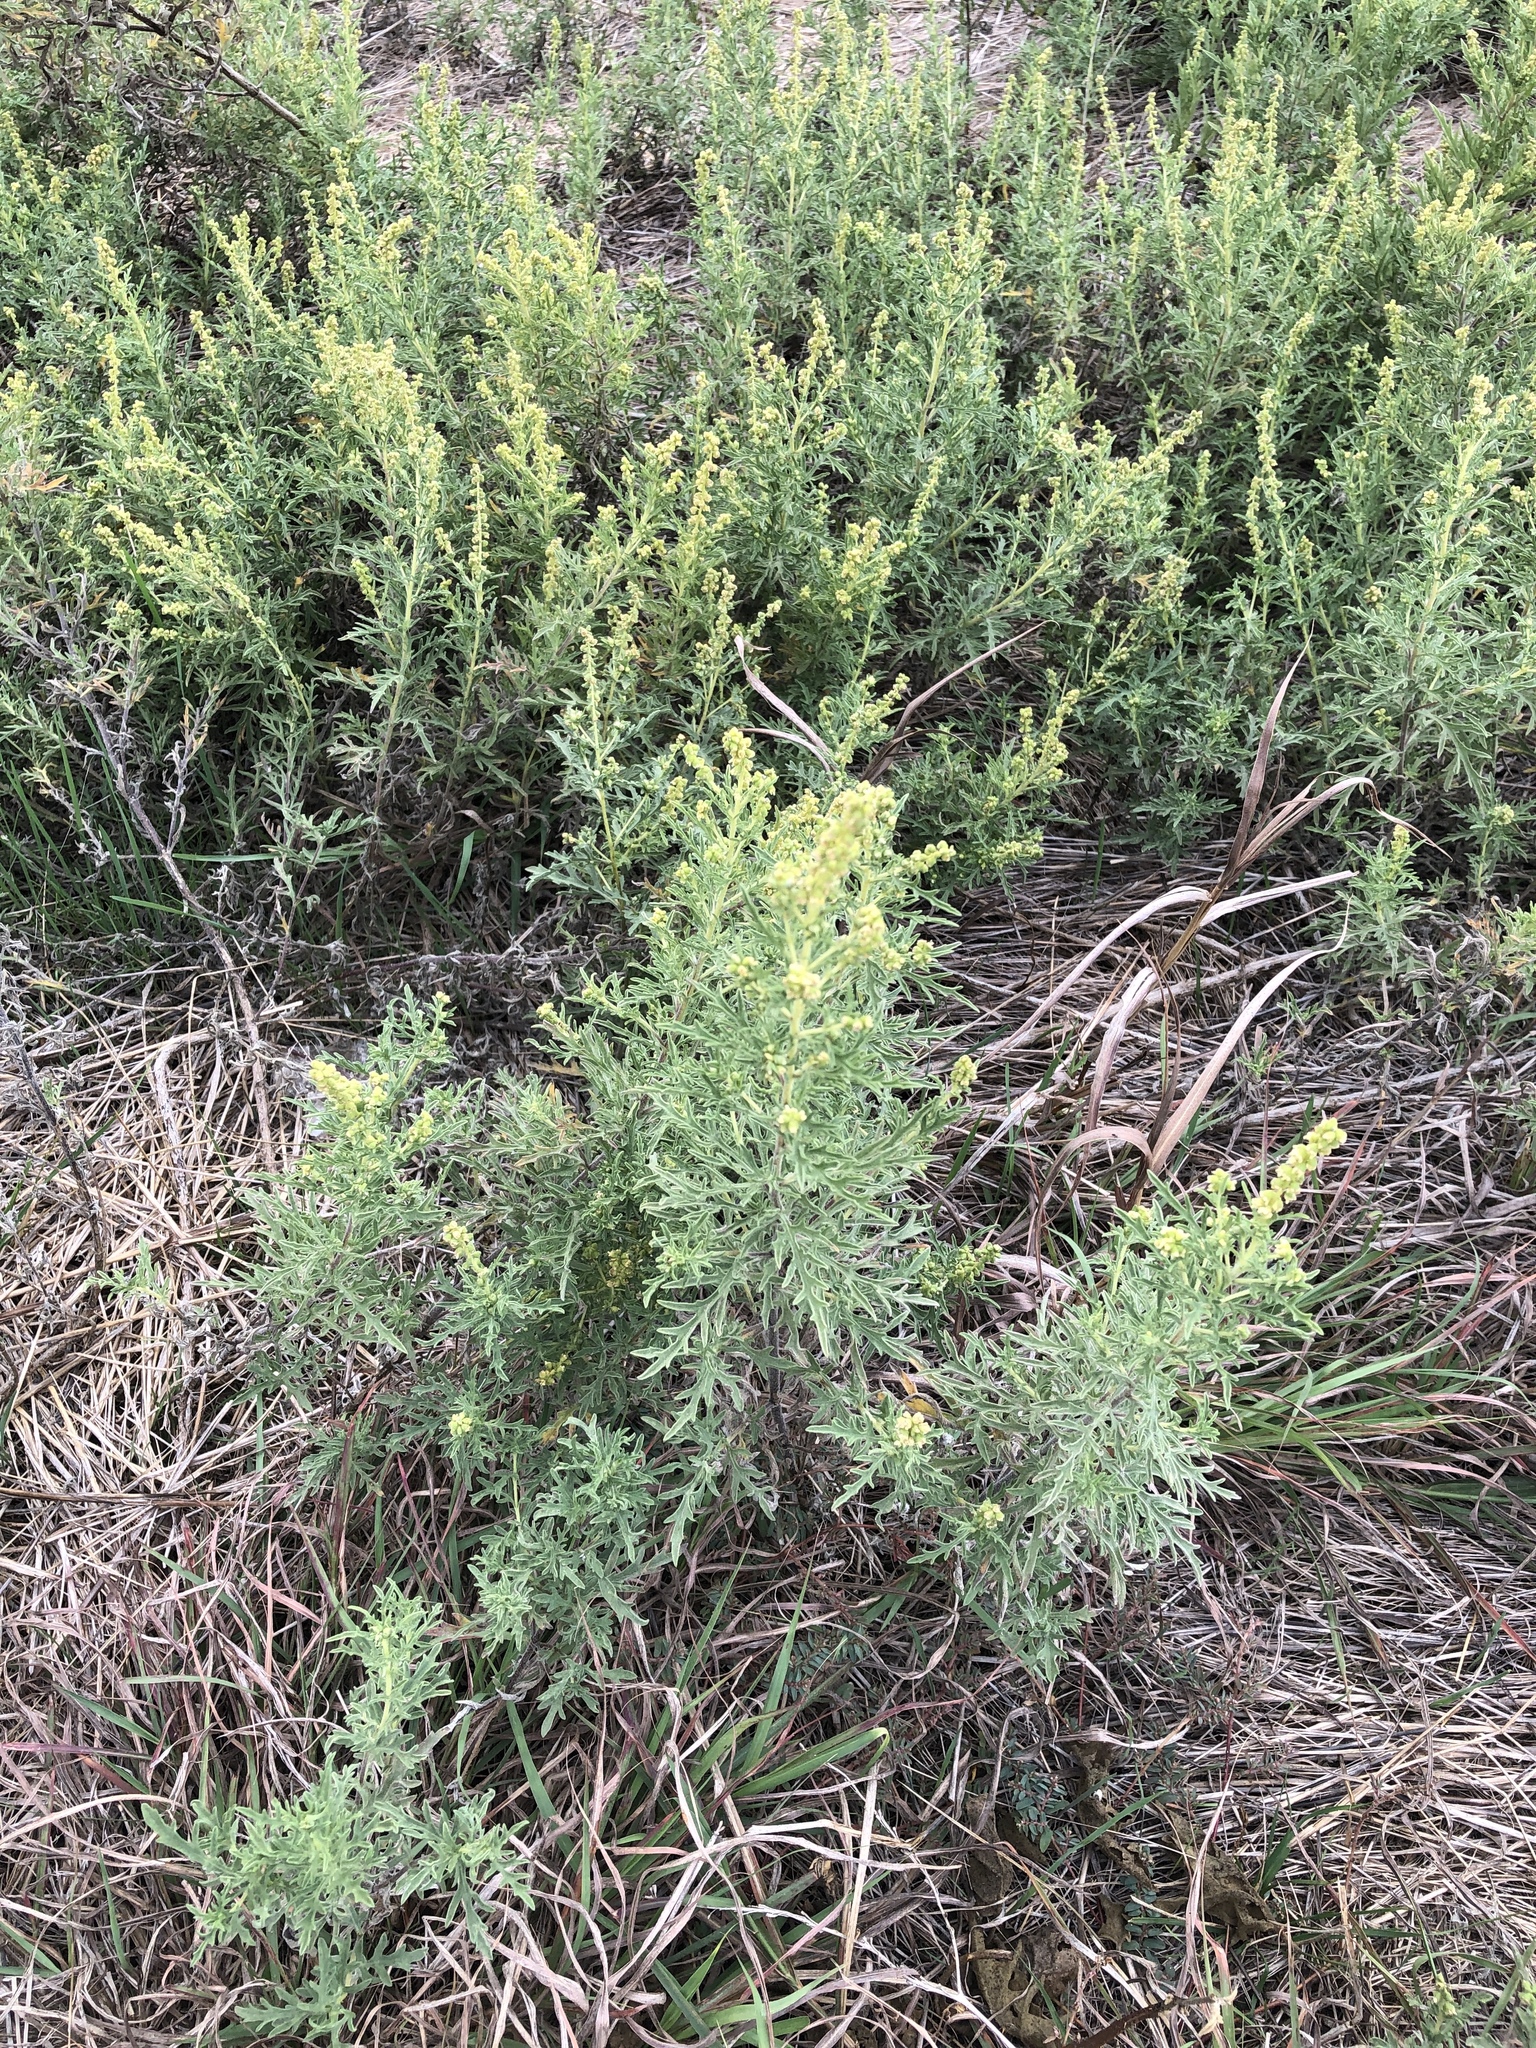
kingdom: Plantae
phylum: Tracheophyta
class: Magnoliopsida
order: Asterales
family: Asteraceae
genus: Ambrosia
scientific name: Ambrosia psilostachya
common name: Perennial ragweed
